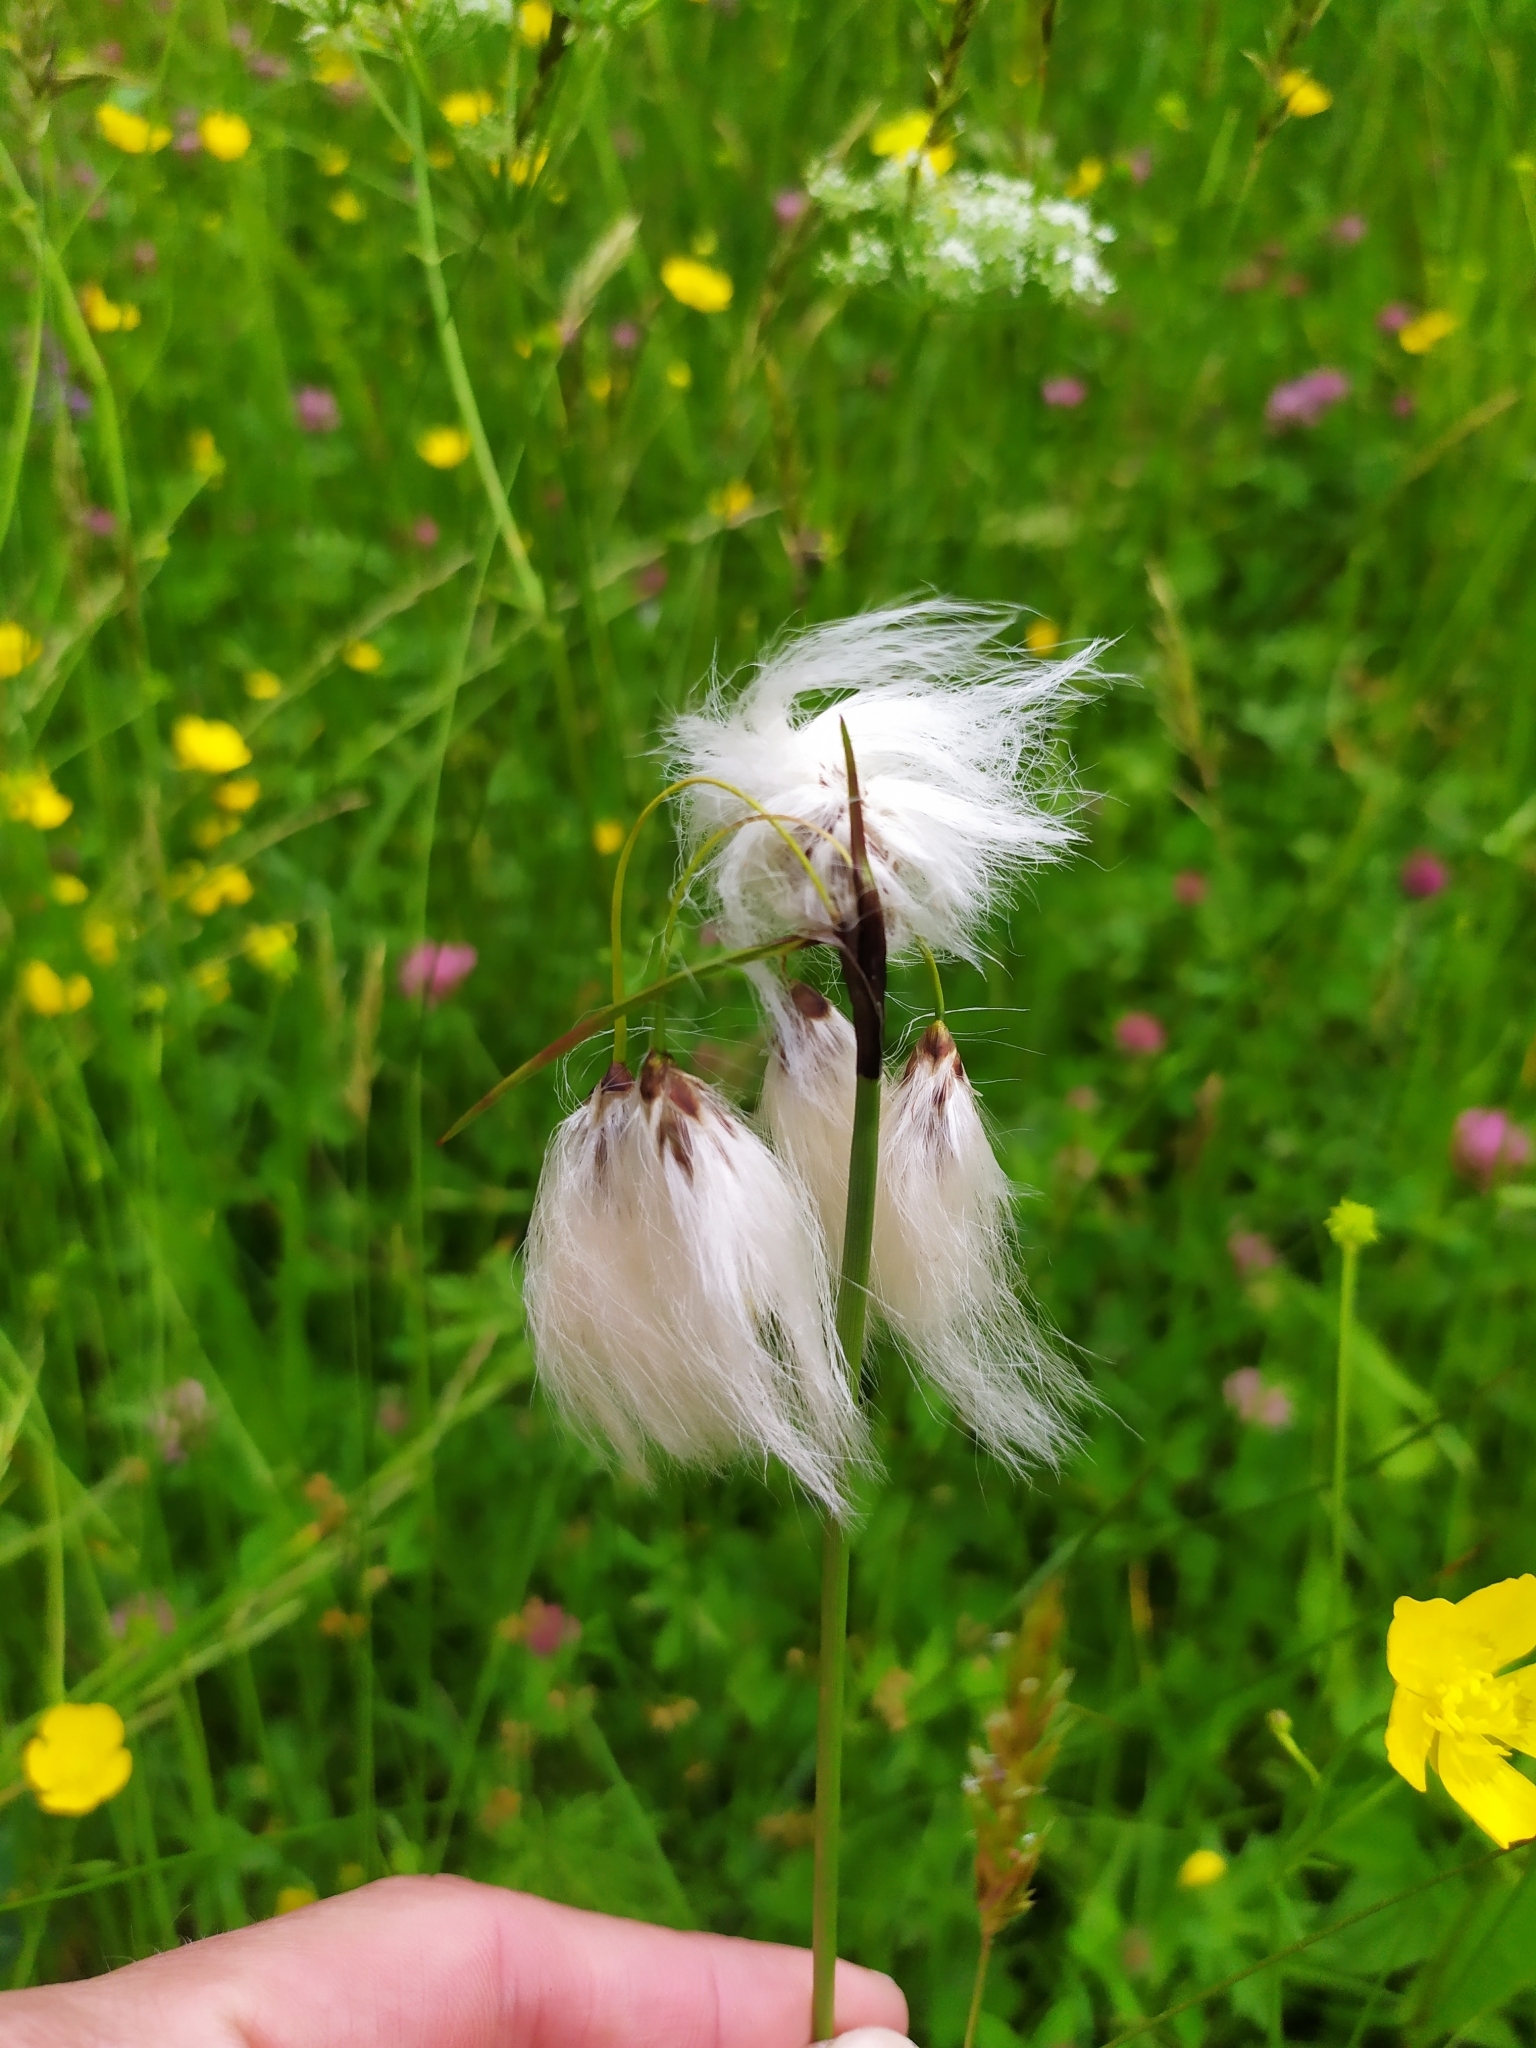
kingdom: Plantae
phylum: Tracheophyta
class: Liliopsida
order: Poales
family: Cyperaceae
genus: Eriophorum
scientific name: Eriophorum latifolium
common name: Broad-leaved cottongrass
